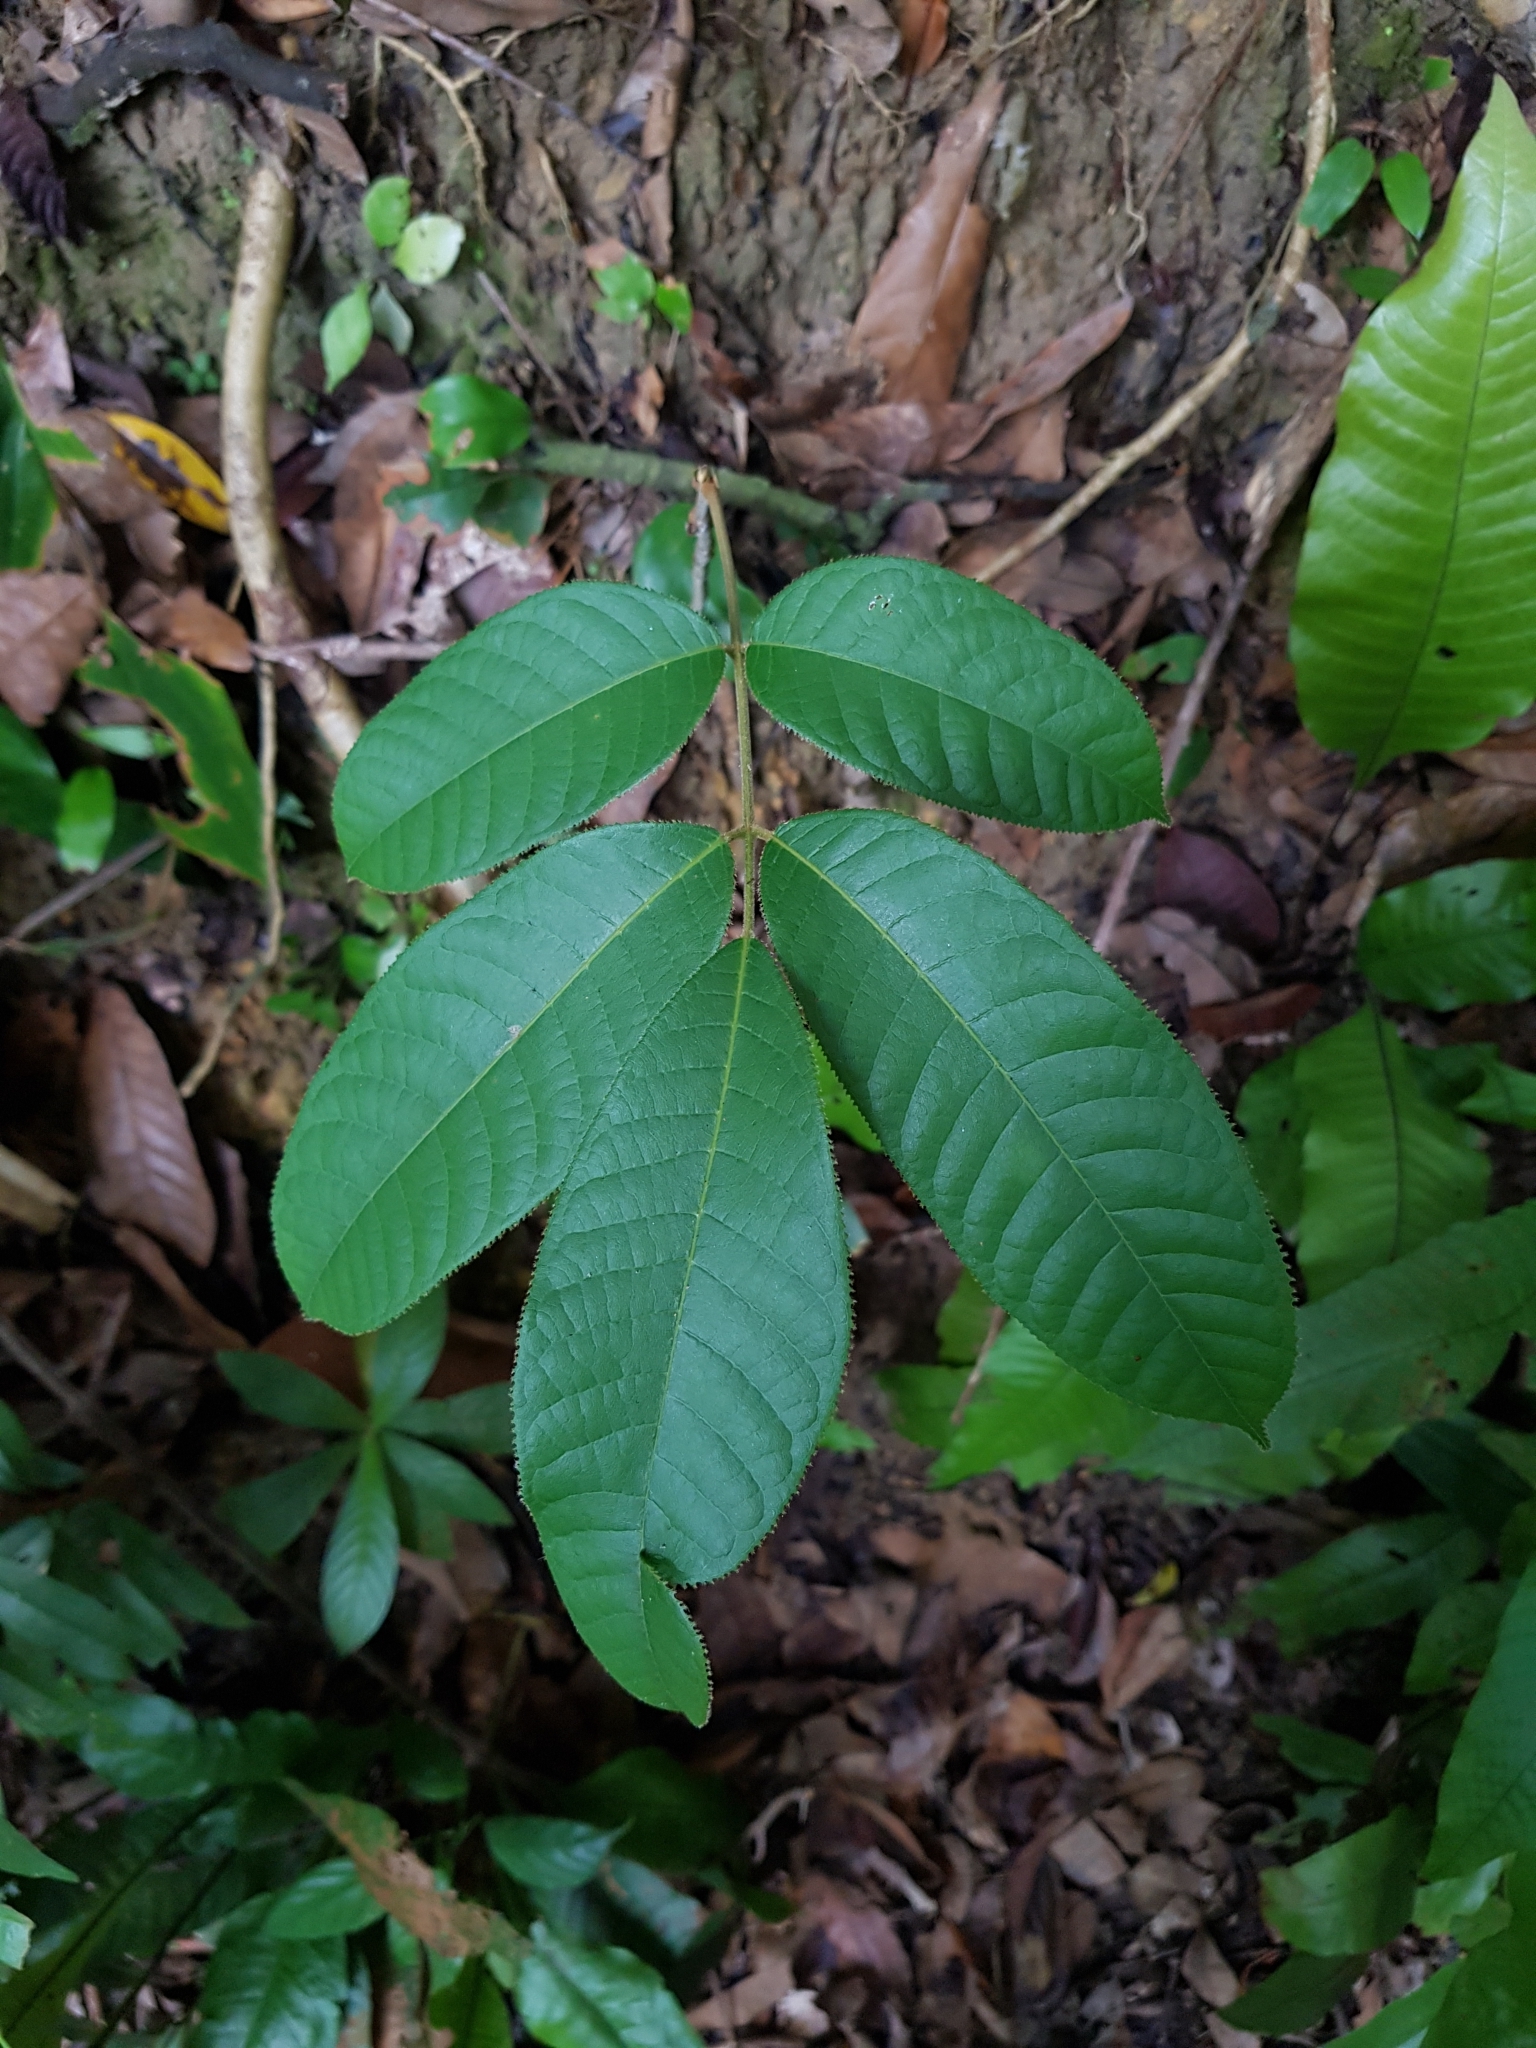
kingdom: Plantae
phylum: Tracheophyta
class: Magnoliopsida
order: Sapindales
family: Burseraceae
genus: Canarium
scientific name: Canarium pilosum
